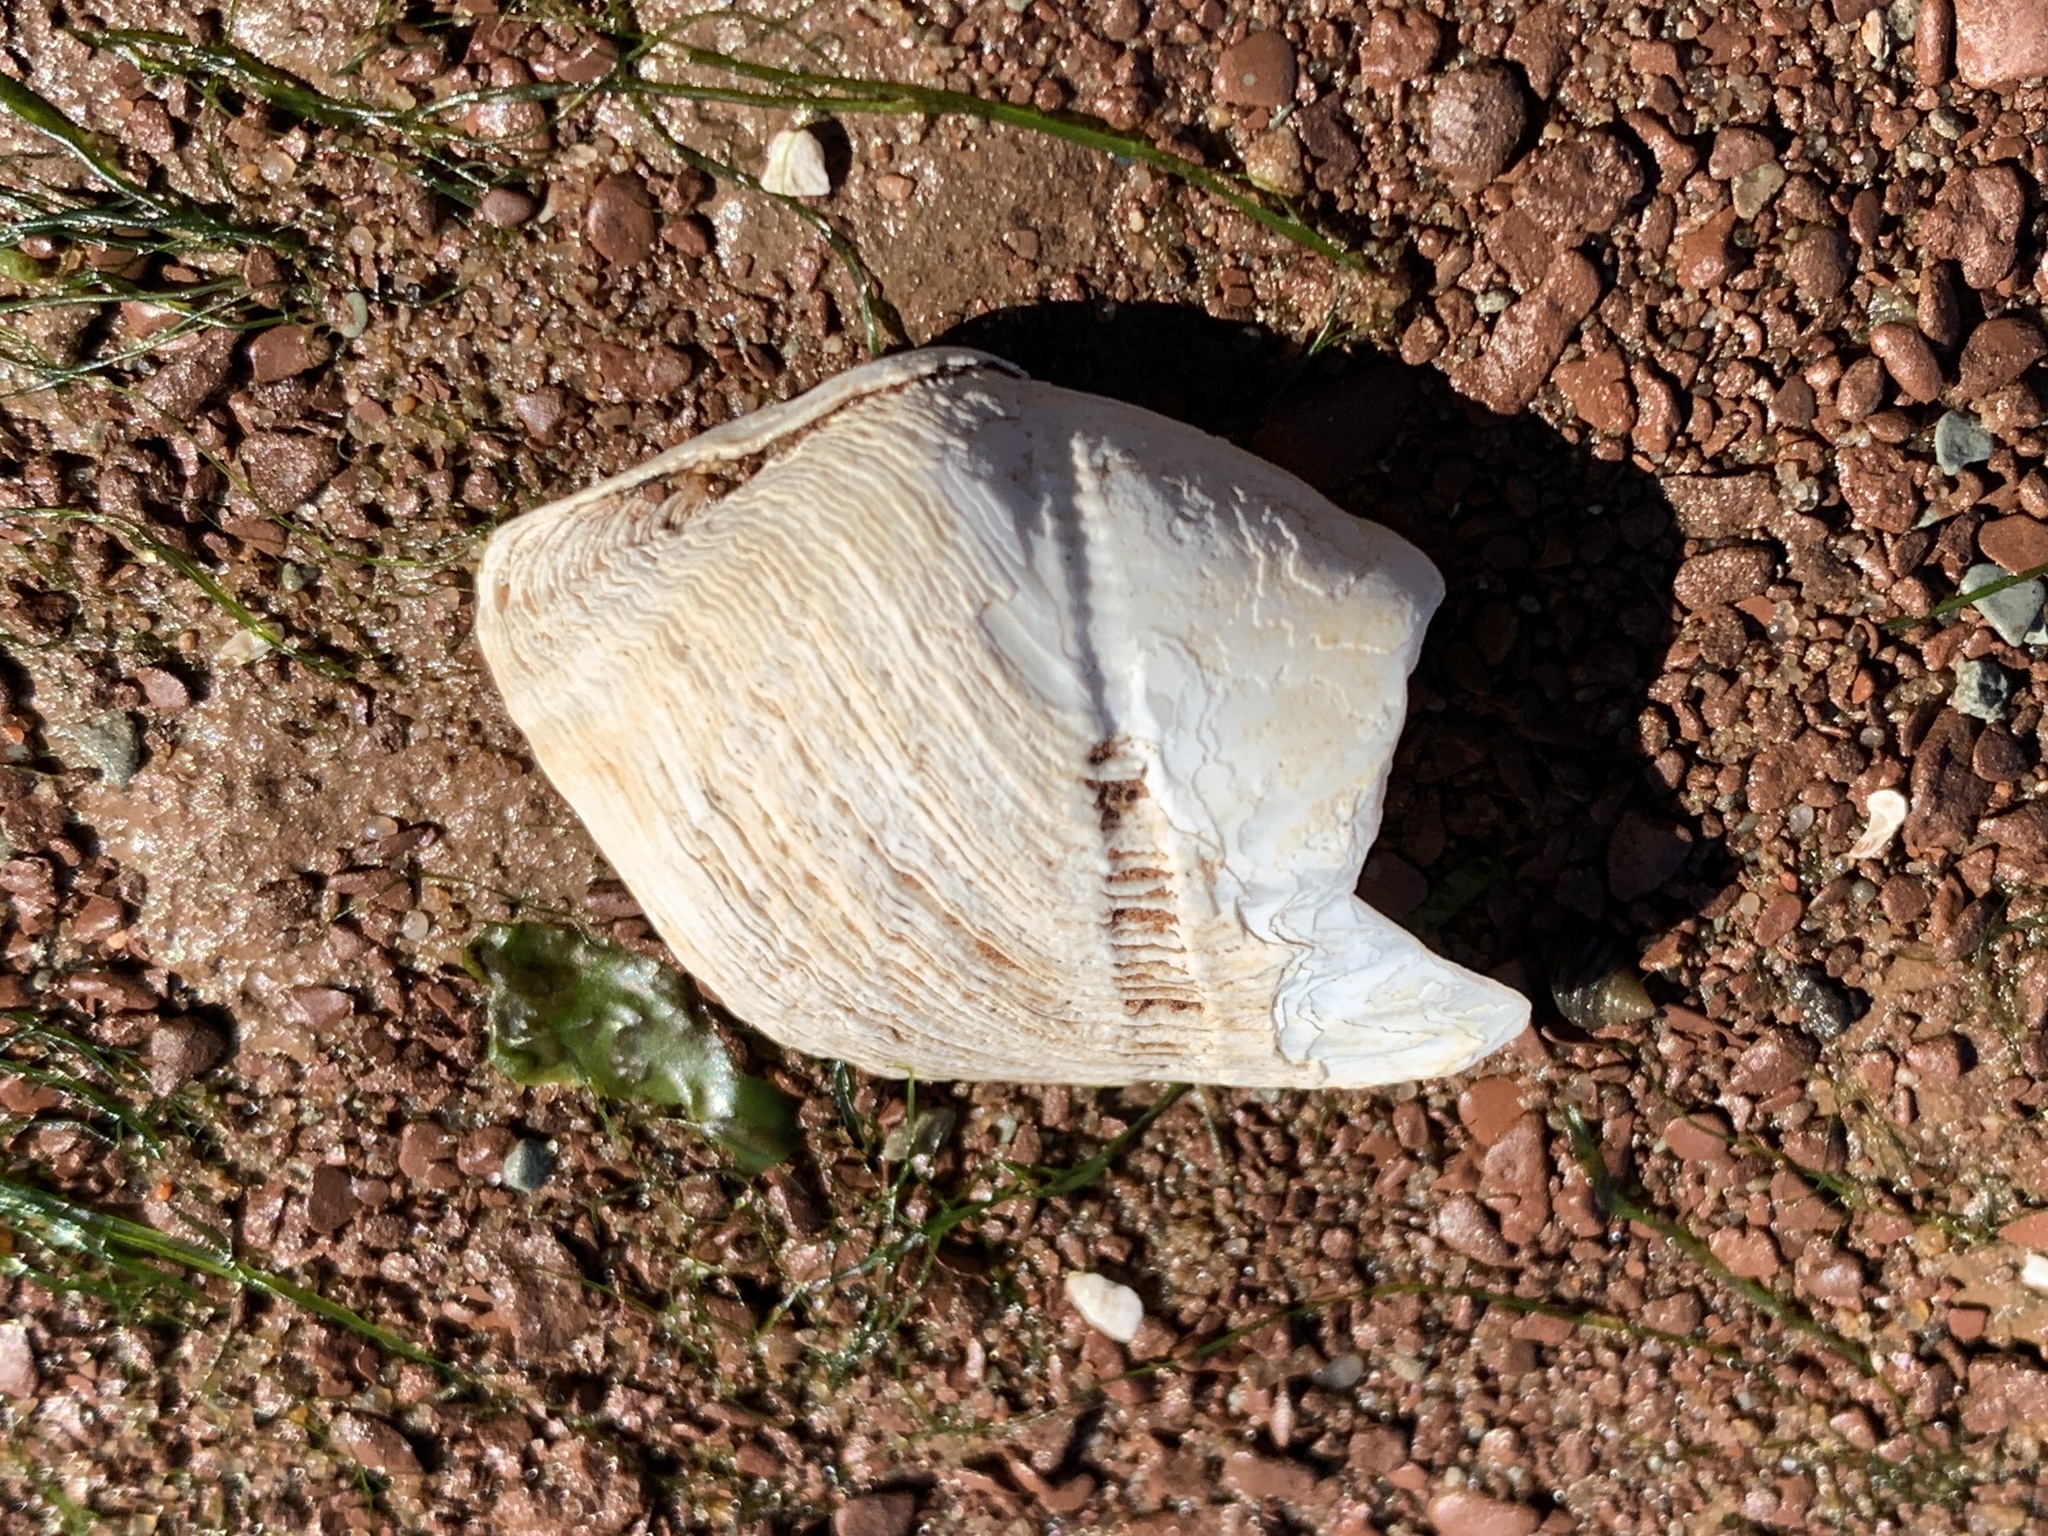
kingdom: Animalia
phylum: Mollusca
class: Bivalvia
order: Myida
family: Pholadidae
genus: Zirfaea
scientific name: Zirfaea crispata
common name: Oval piddock
